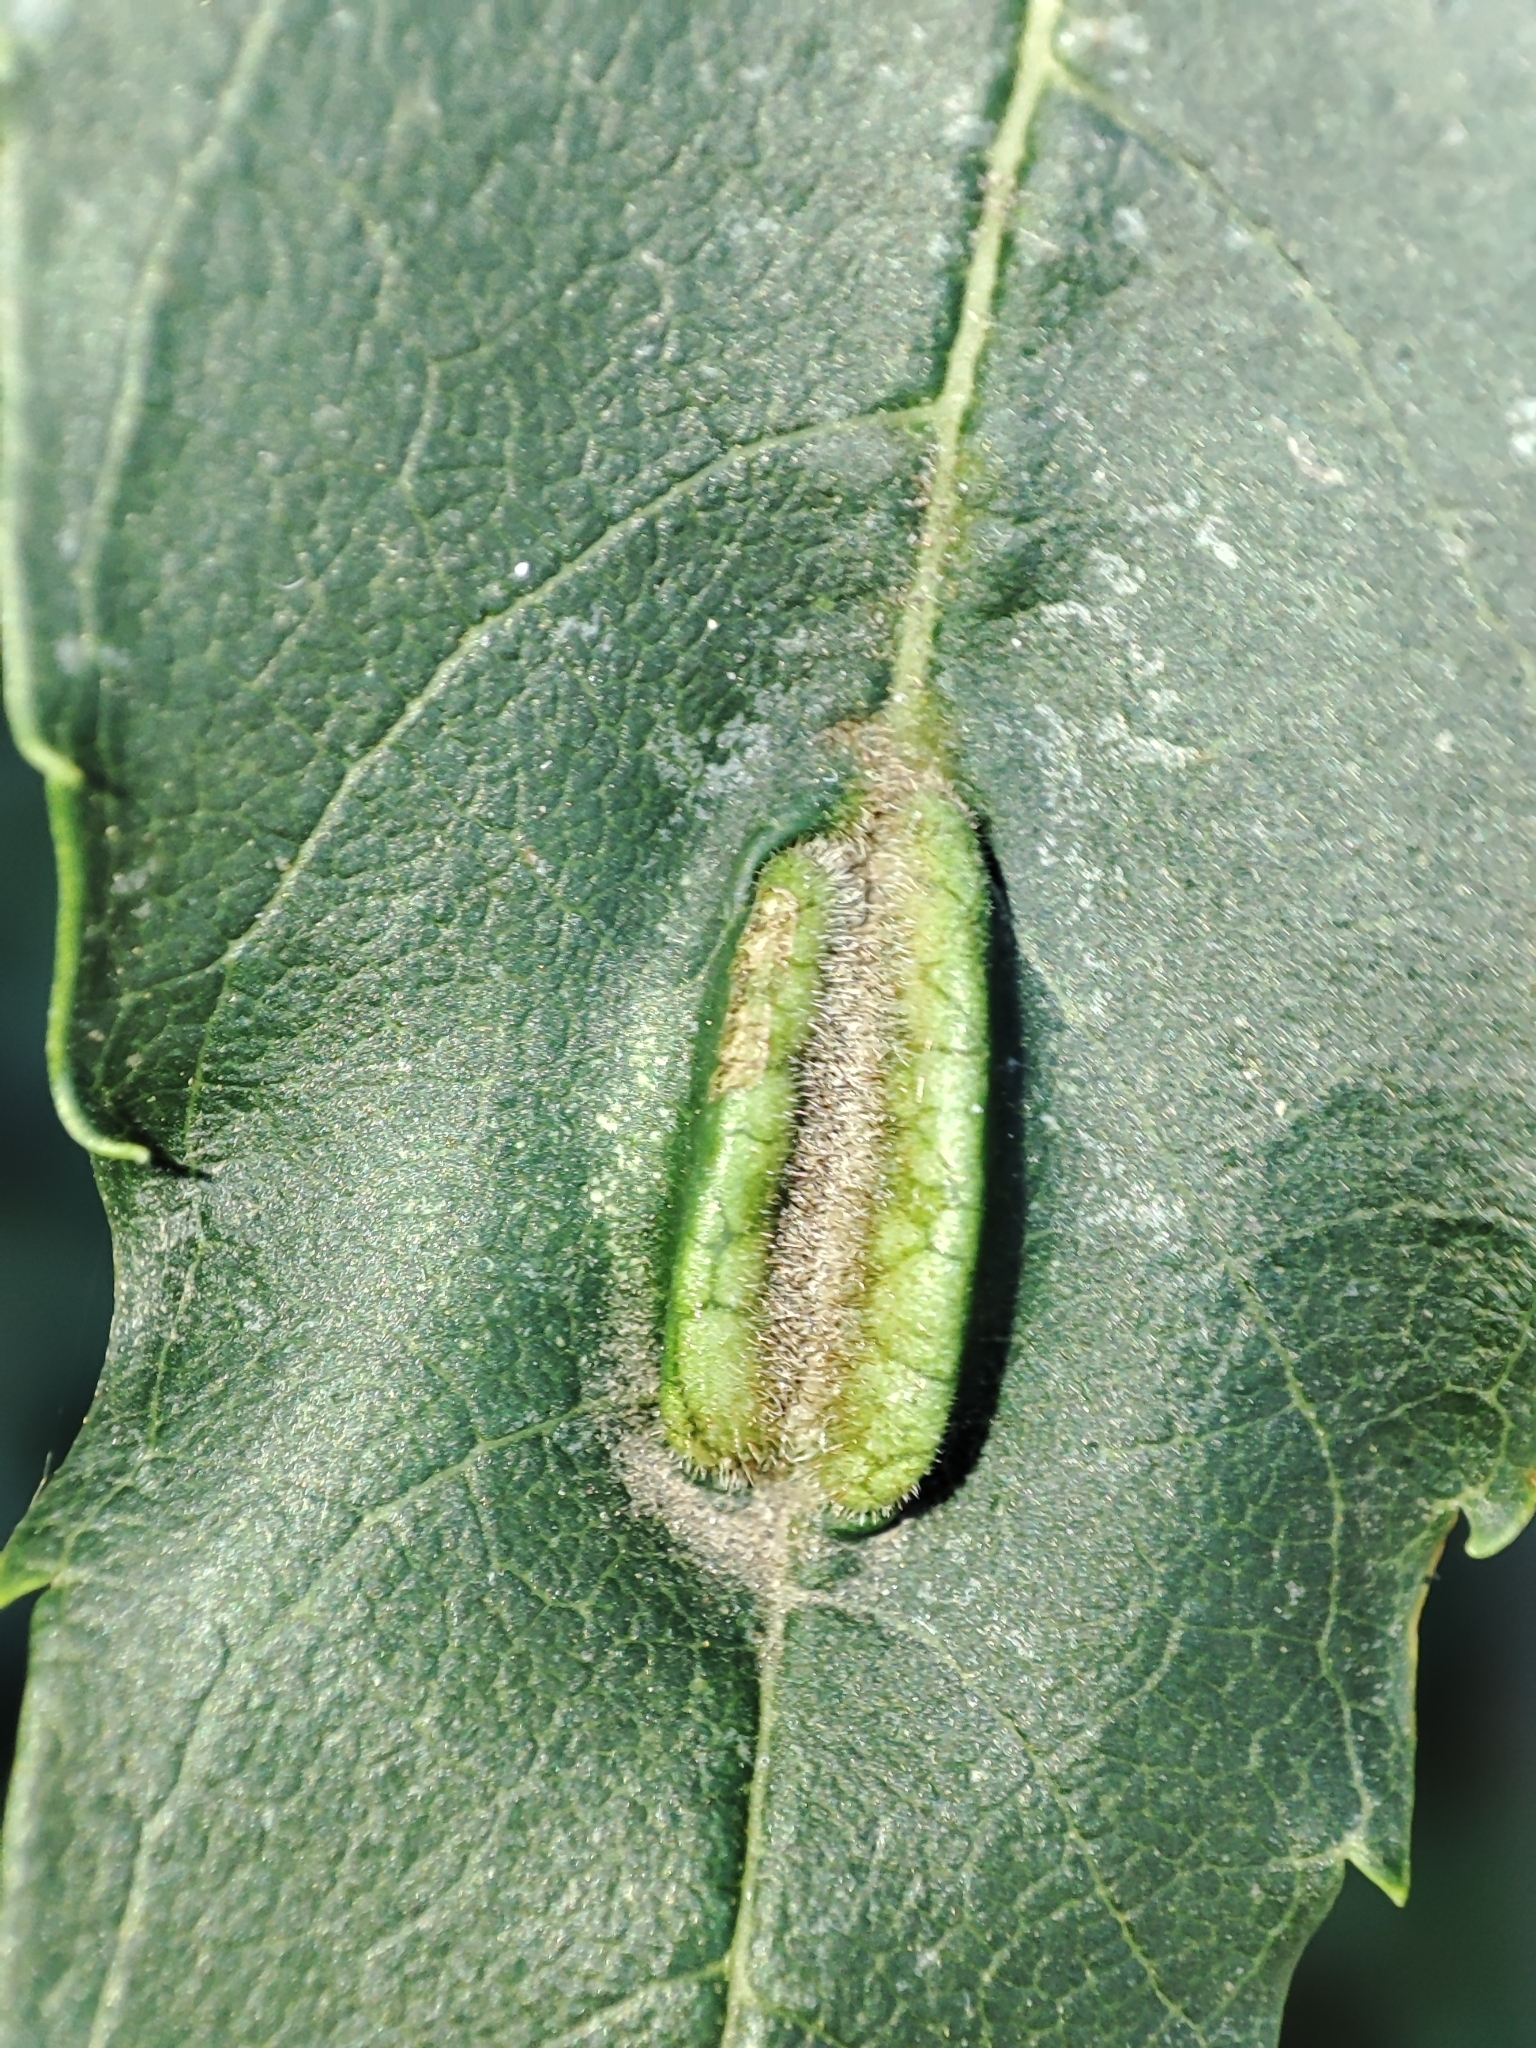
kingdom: Animalia
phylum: Arthropoda
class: Insecta
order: Diptera
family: Cecidomyiidae
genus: Dasineura
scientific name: Dasineura fraxini
